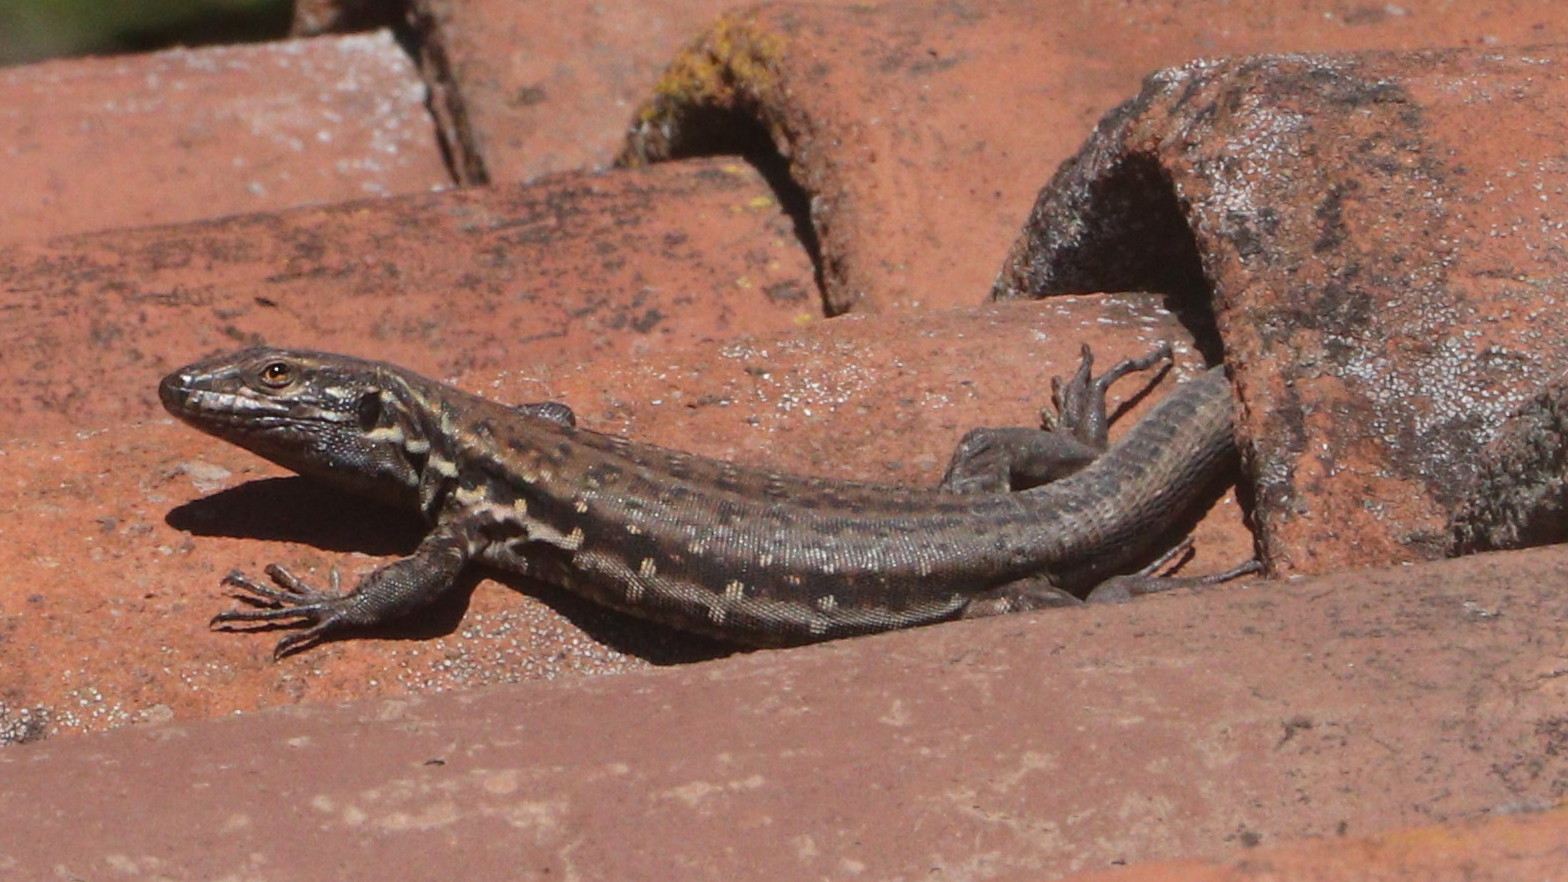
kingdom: Animalia
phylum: Chordata
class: Squamata
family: Lacertidae
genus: Gallotia
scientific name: Gallotia galloti
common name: Gallot's lizard
